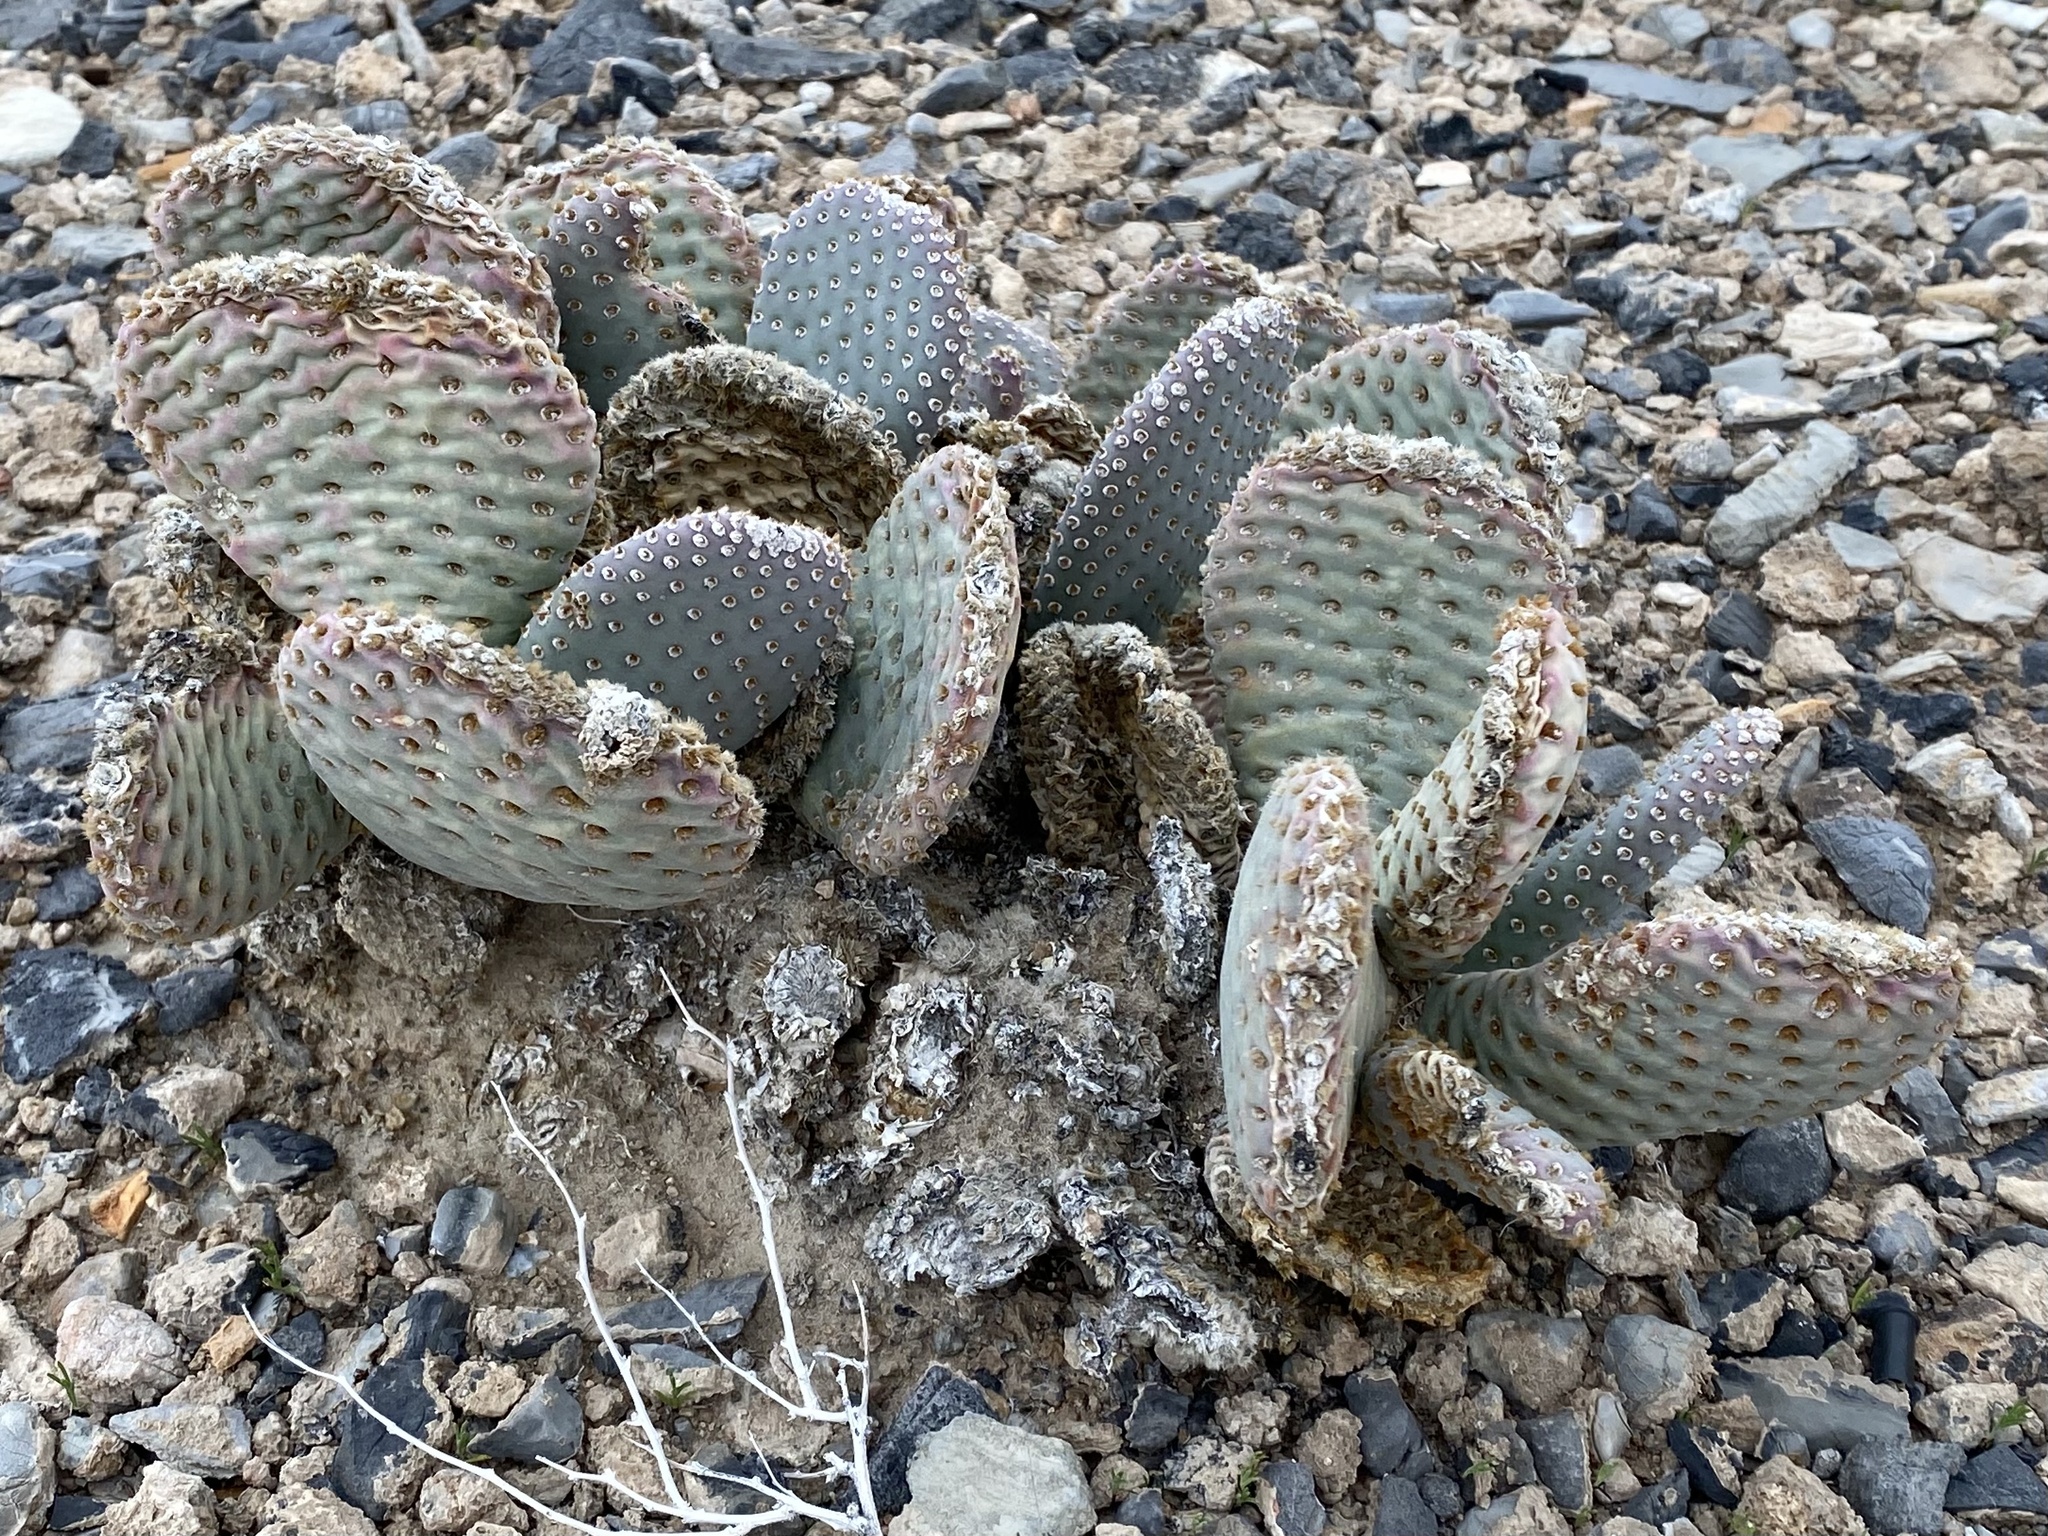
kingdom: Plantae
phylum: Tracheophyta
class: Magnoliopsida
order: Caryophyllales
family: Cactaceae
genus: Opuntia
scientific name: Opuntia basilaris
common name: Beavertail prickly-pear
